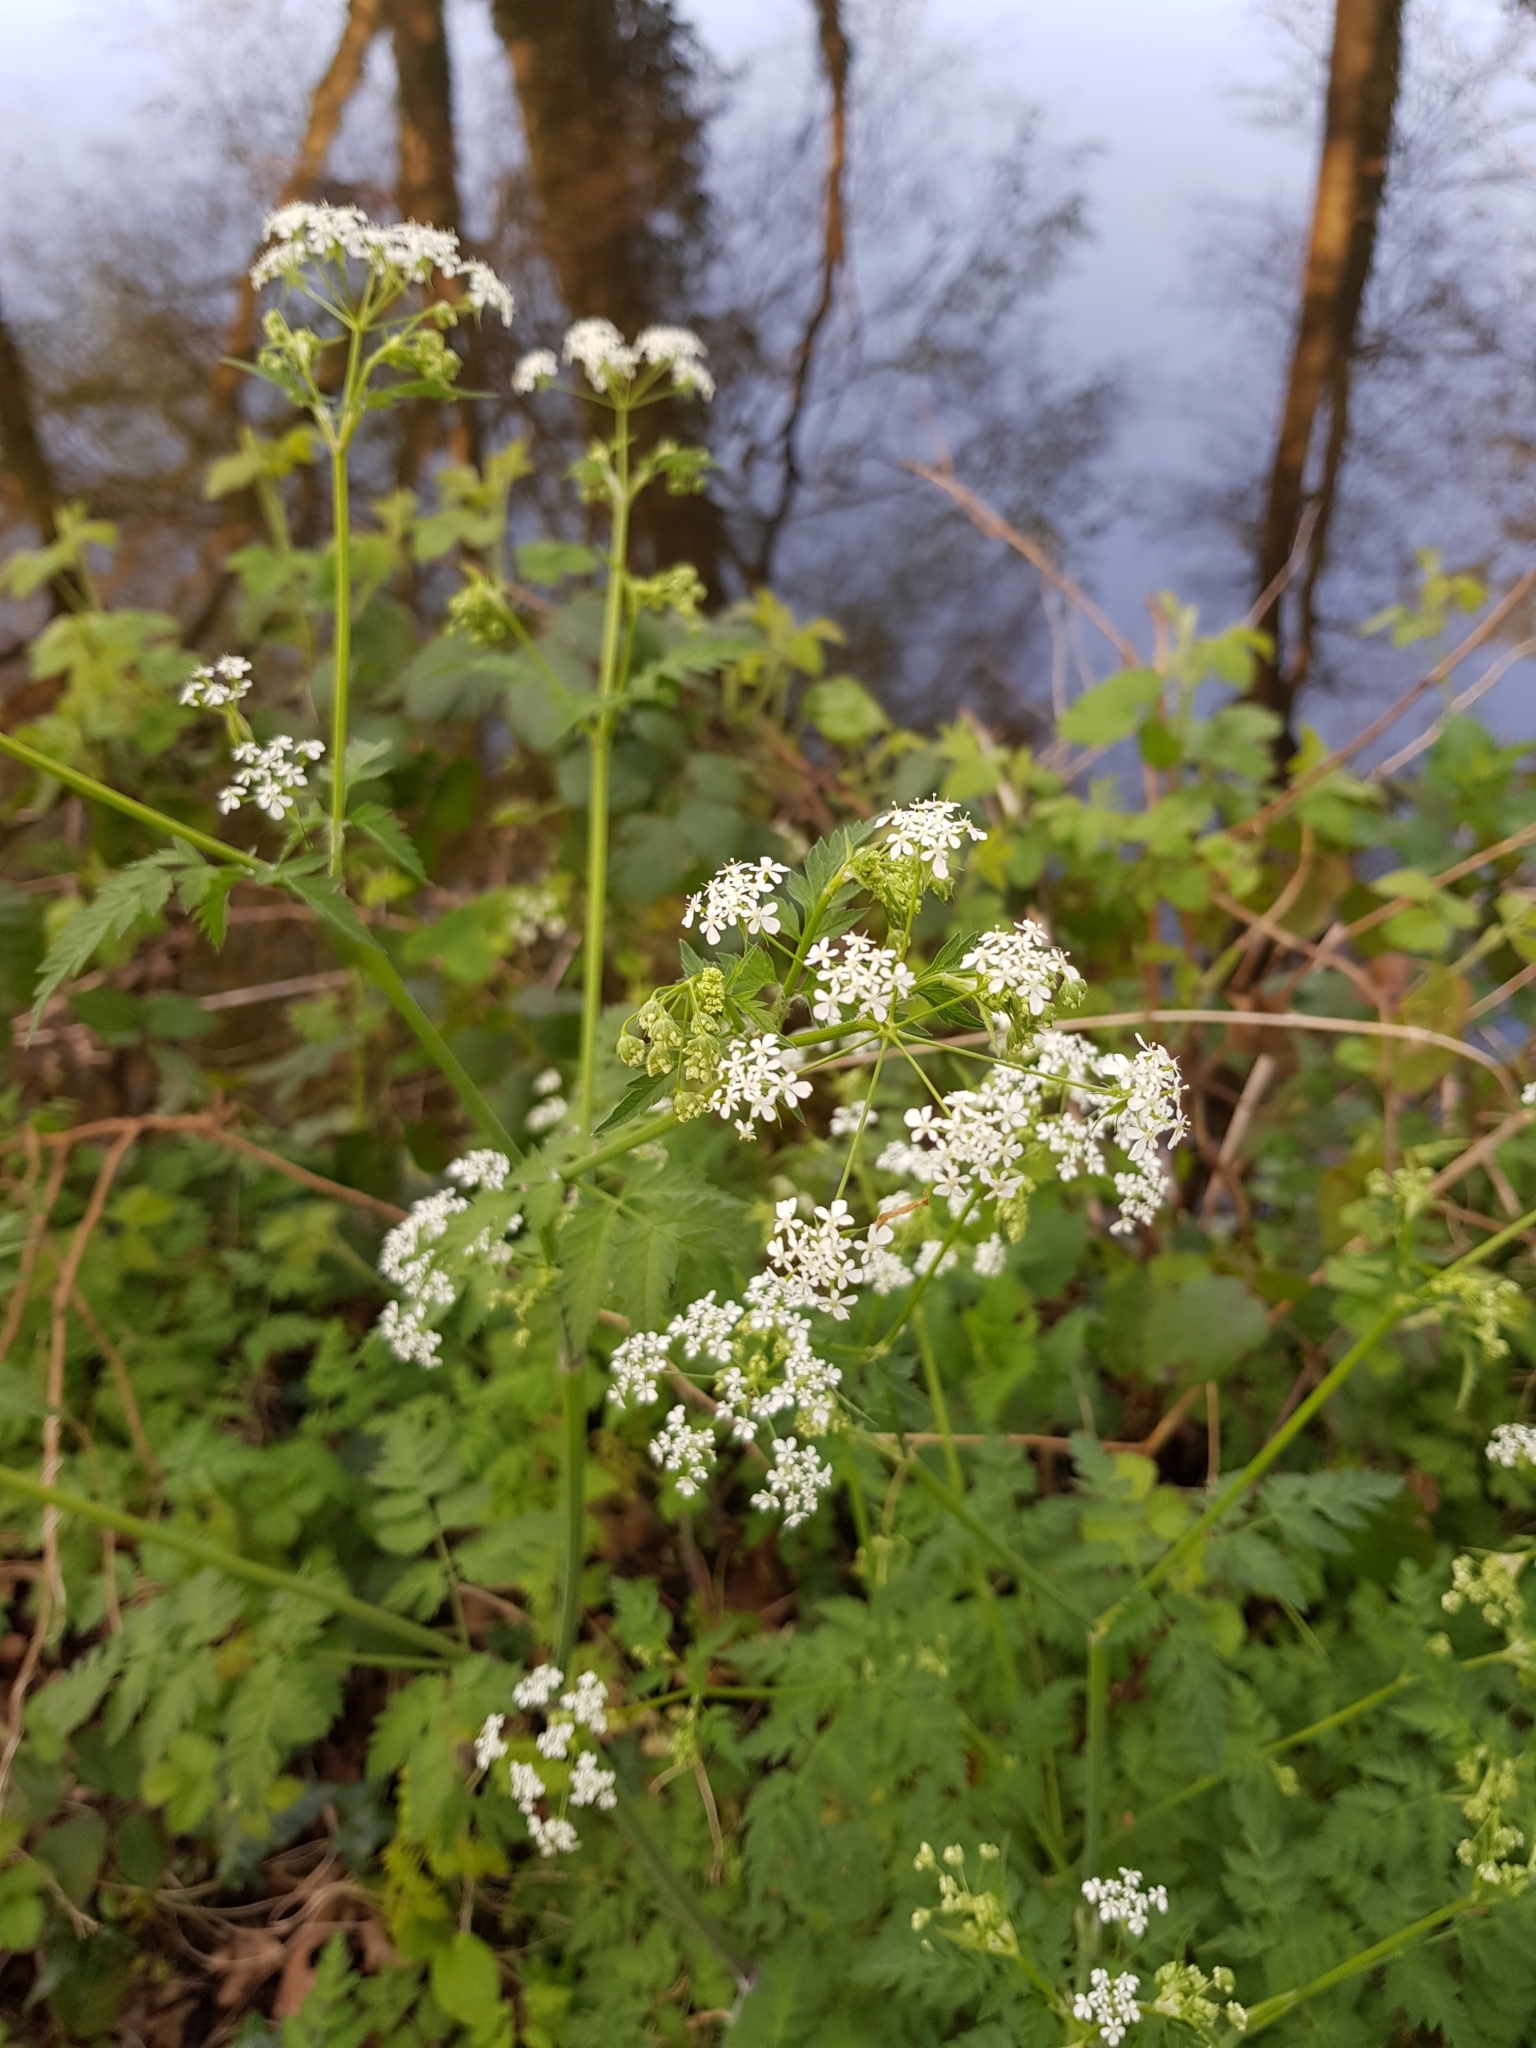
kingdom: Plantae
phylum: Tracheophyta
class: Magnoliopsida
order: Apiales
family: Apiaceae
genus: Anthriscus
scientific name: Anthriscus sylvestris
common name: Cow parsley
